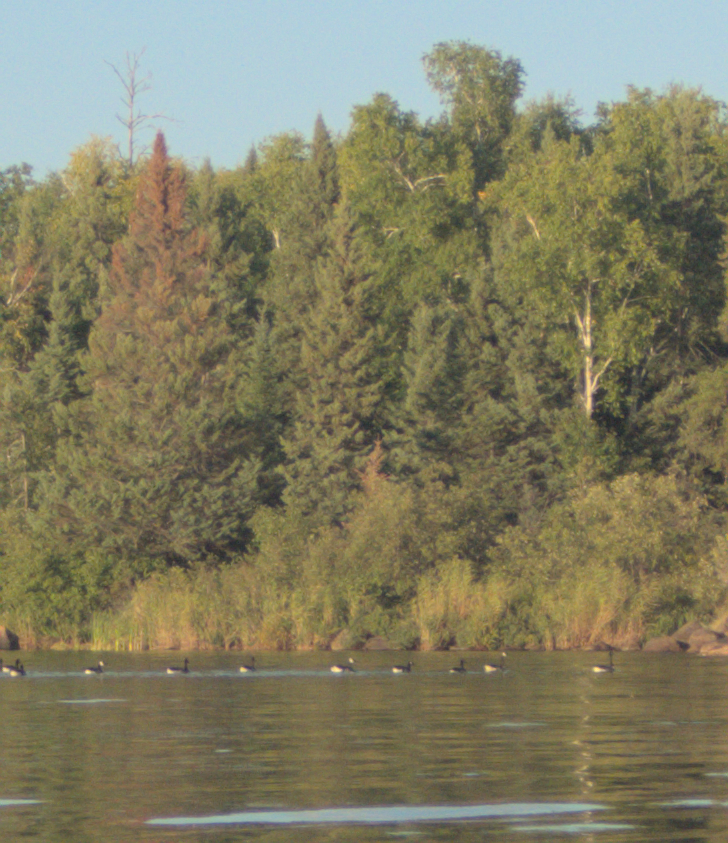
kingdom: Animalia
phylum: Chordata
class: Aves
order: Anseriformes
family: Anatidae
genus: Branta
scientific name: Branta canadensis
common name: Canada goose
